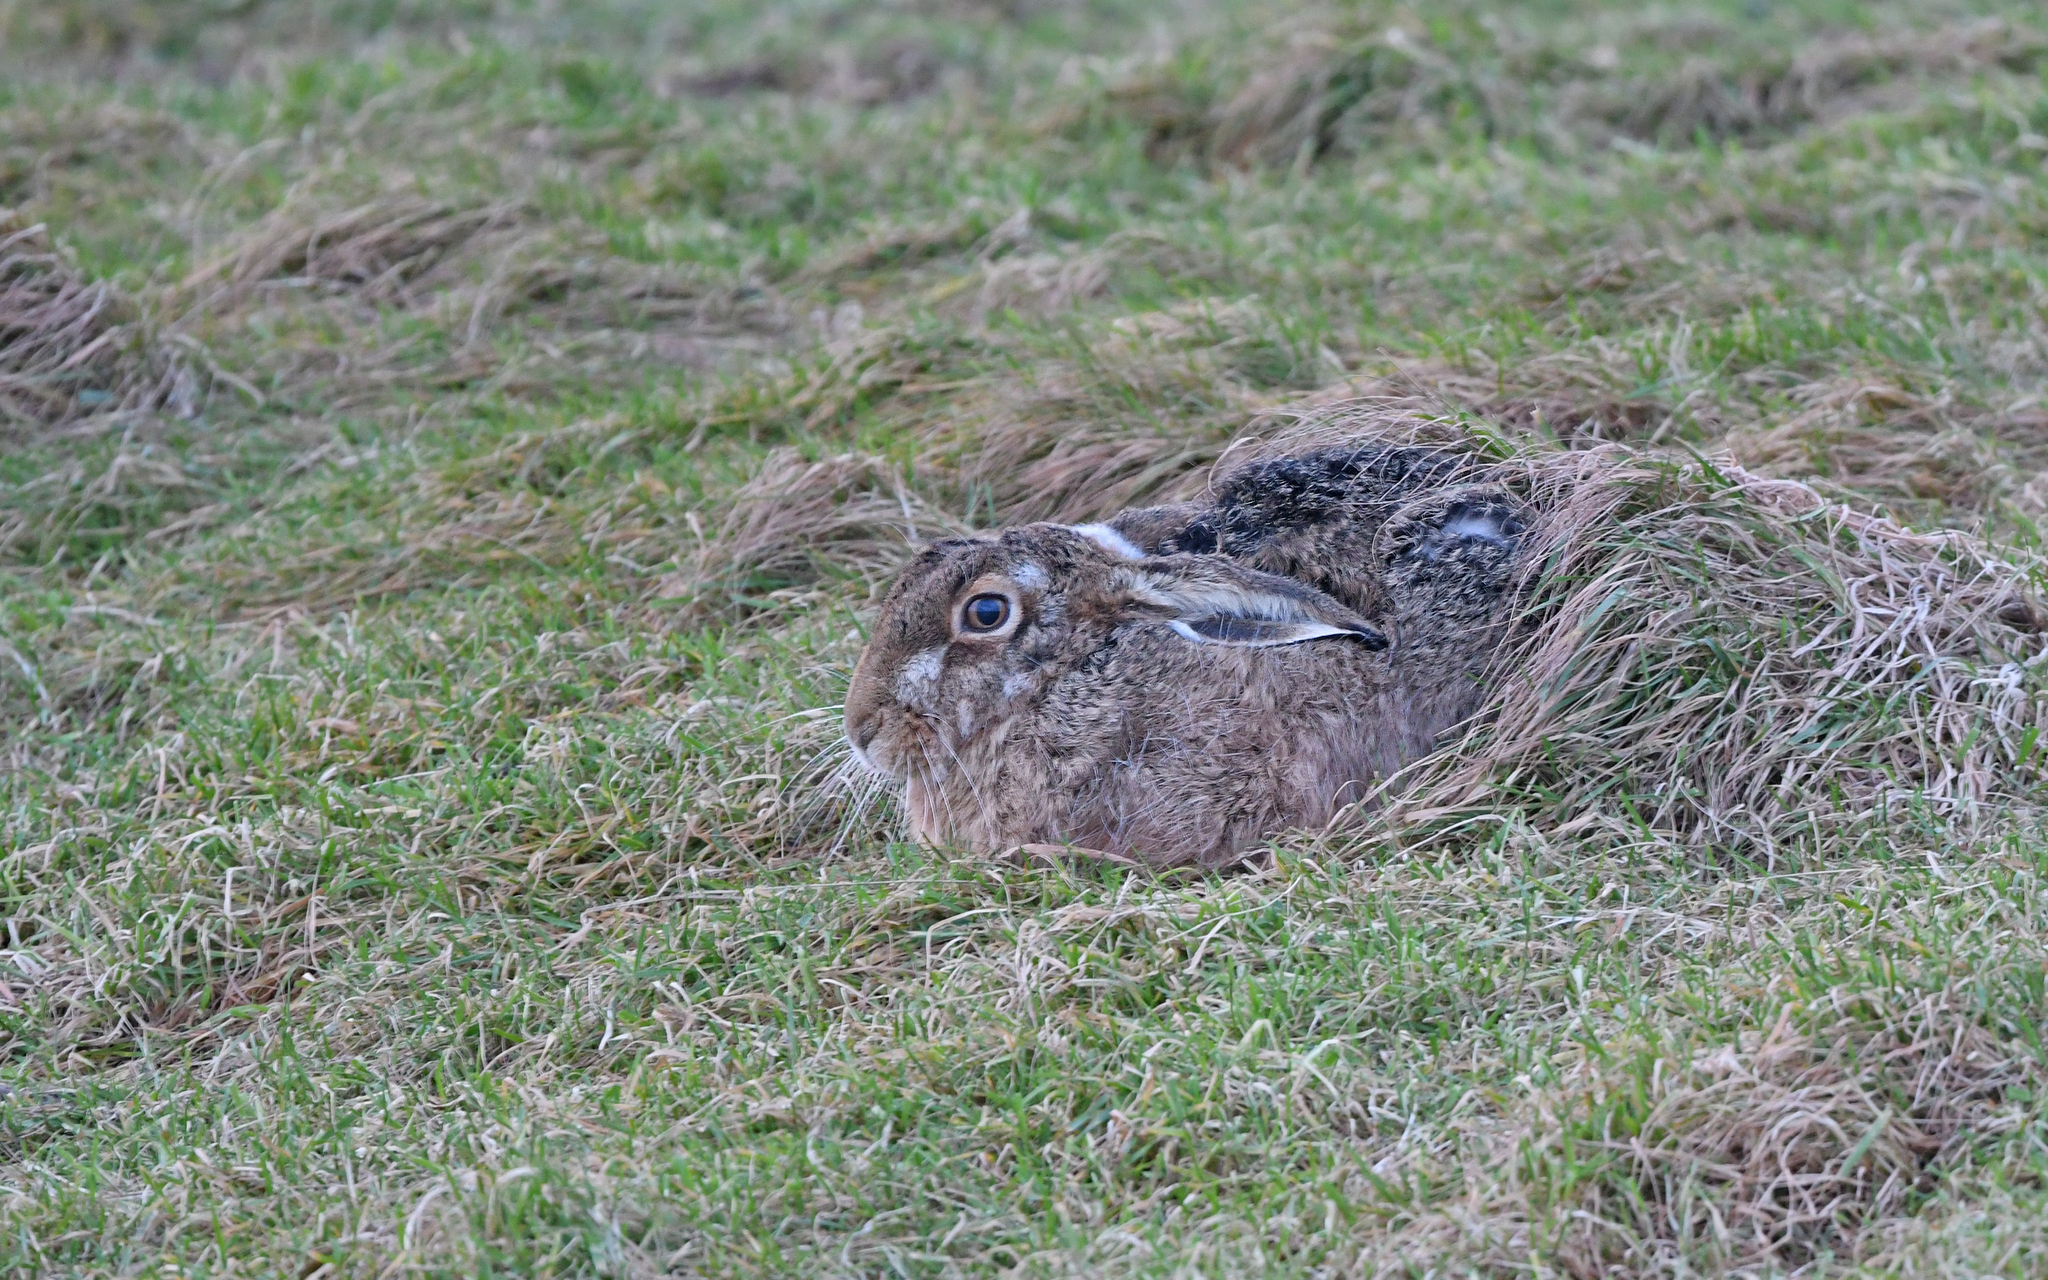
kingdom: Animalia
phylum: Chordata
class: Mammalia
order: Lagomorpha
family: Leporidae
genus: Lepus
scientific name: Lepus europaeus
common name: European hare
